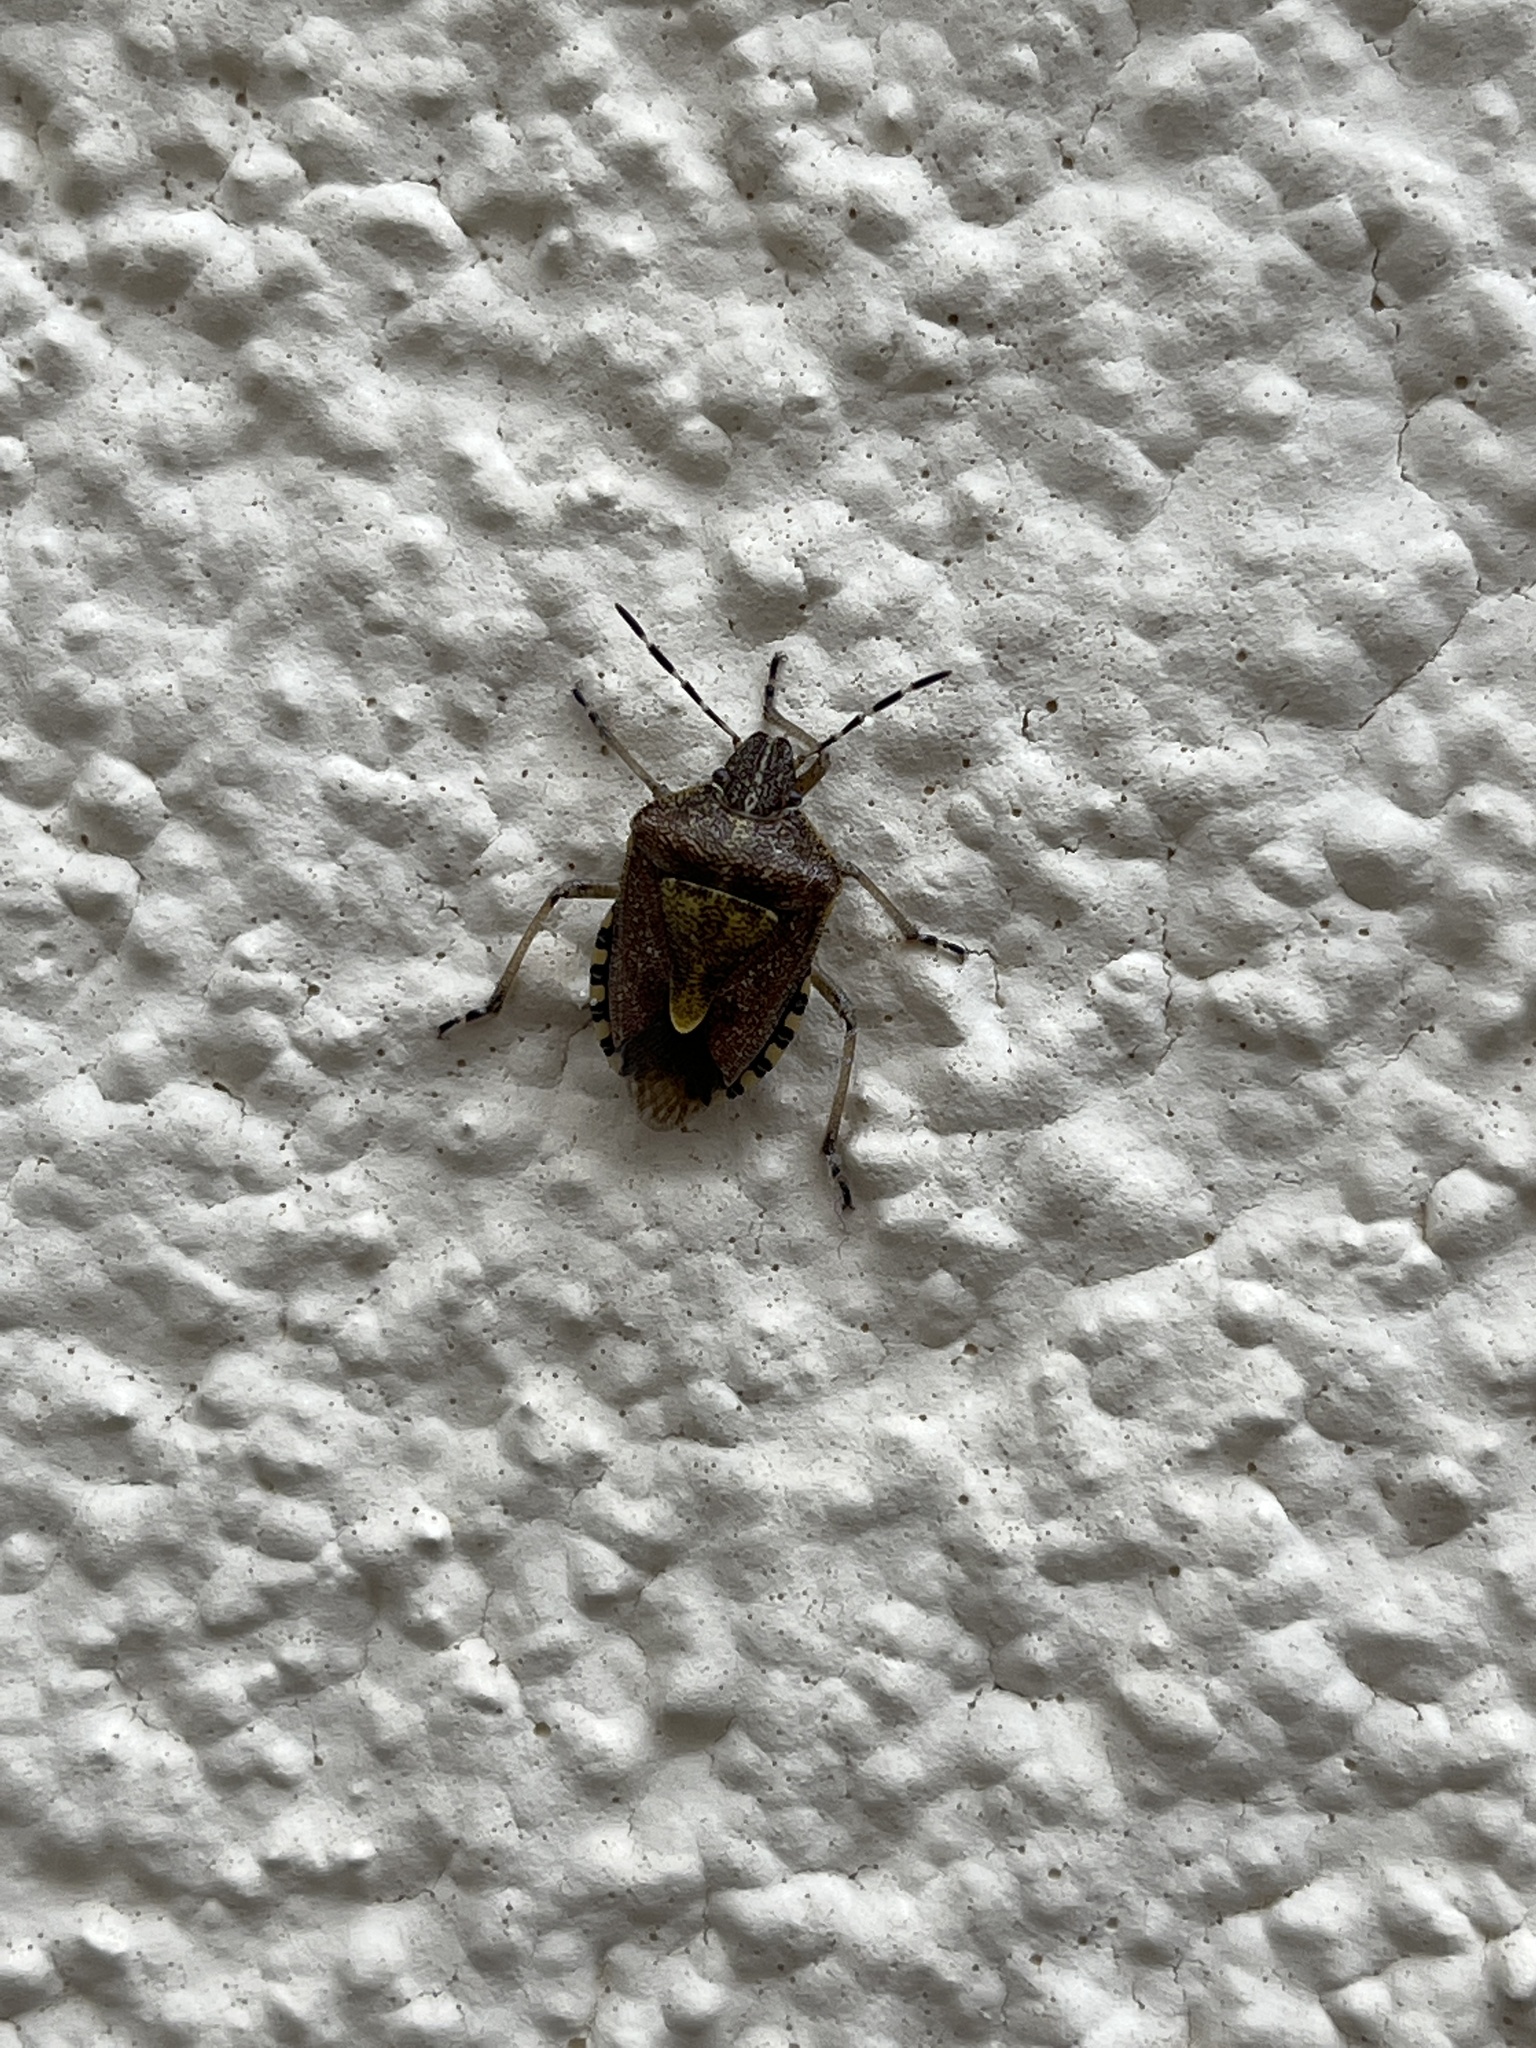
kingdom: Animalia
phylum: Arthropoda
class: Insecta
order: Hemiptera
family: Pentatomidae
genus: Dolycoris
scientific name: Dolycoris baccarum
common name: Sloe bug
